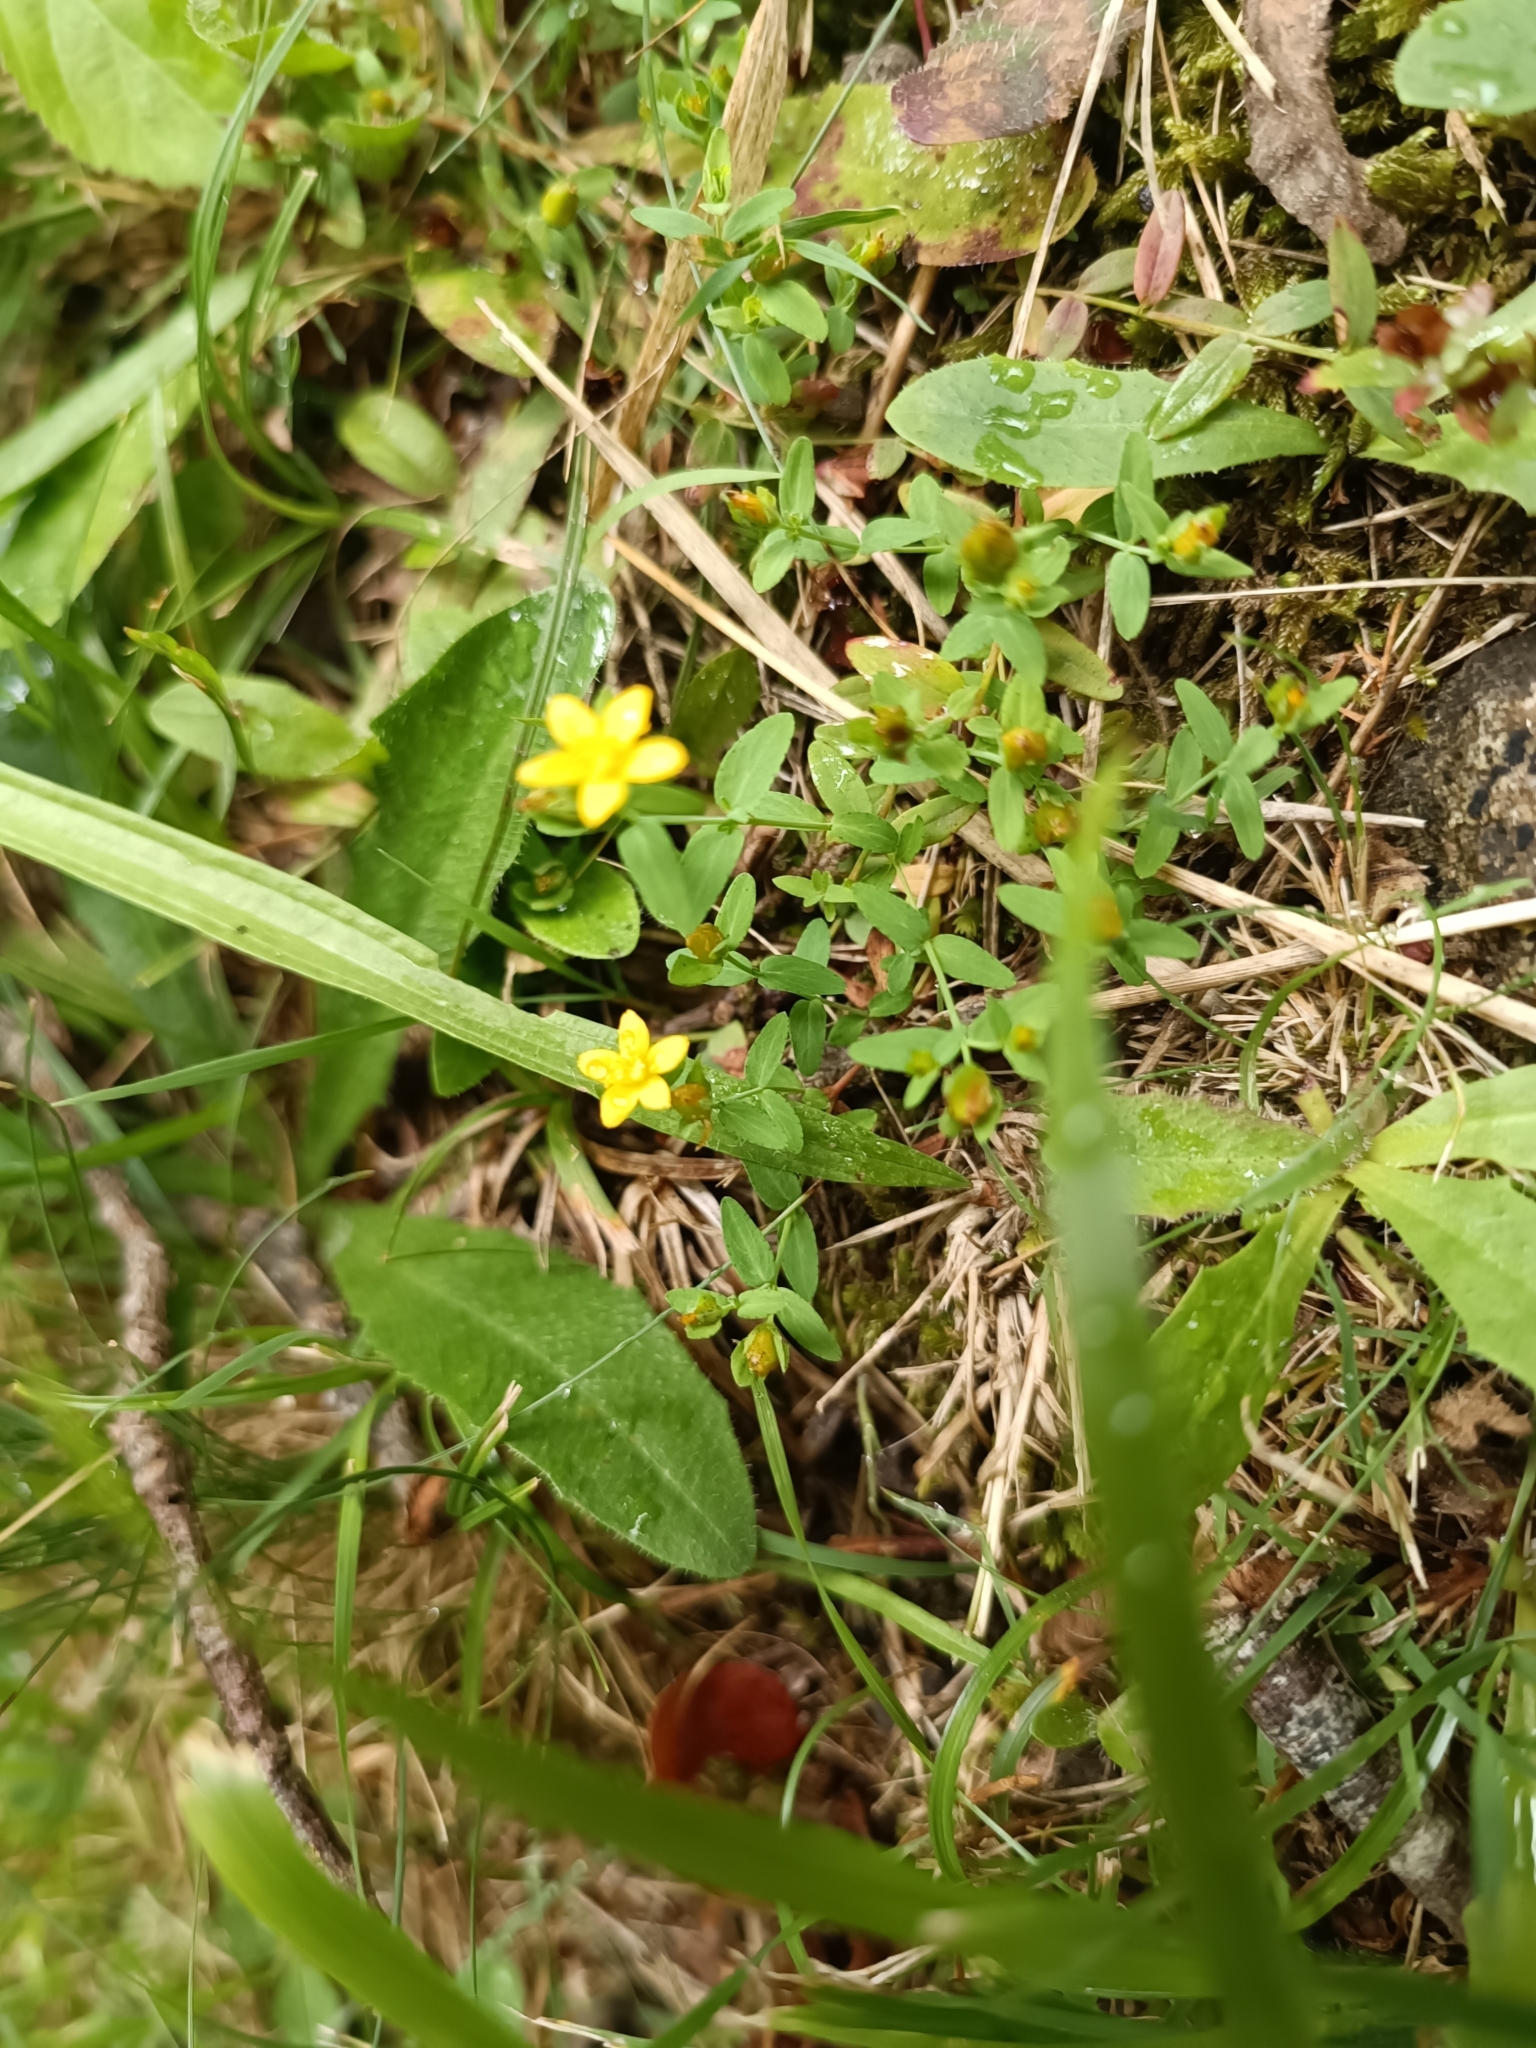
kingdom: Plantae
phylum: Tracheophyta
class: Magnoliopsida
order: Malpighiales
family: Hypericaceae
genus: Hypericum
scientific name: Hypericum humifusum
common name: Trailing st. john's-wort
